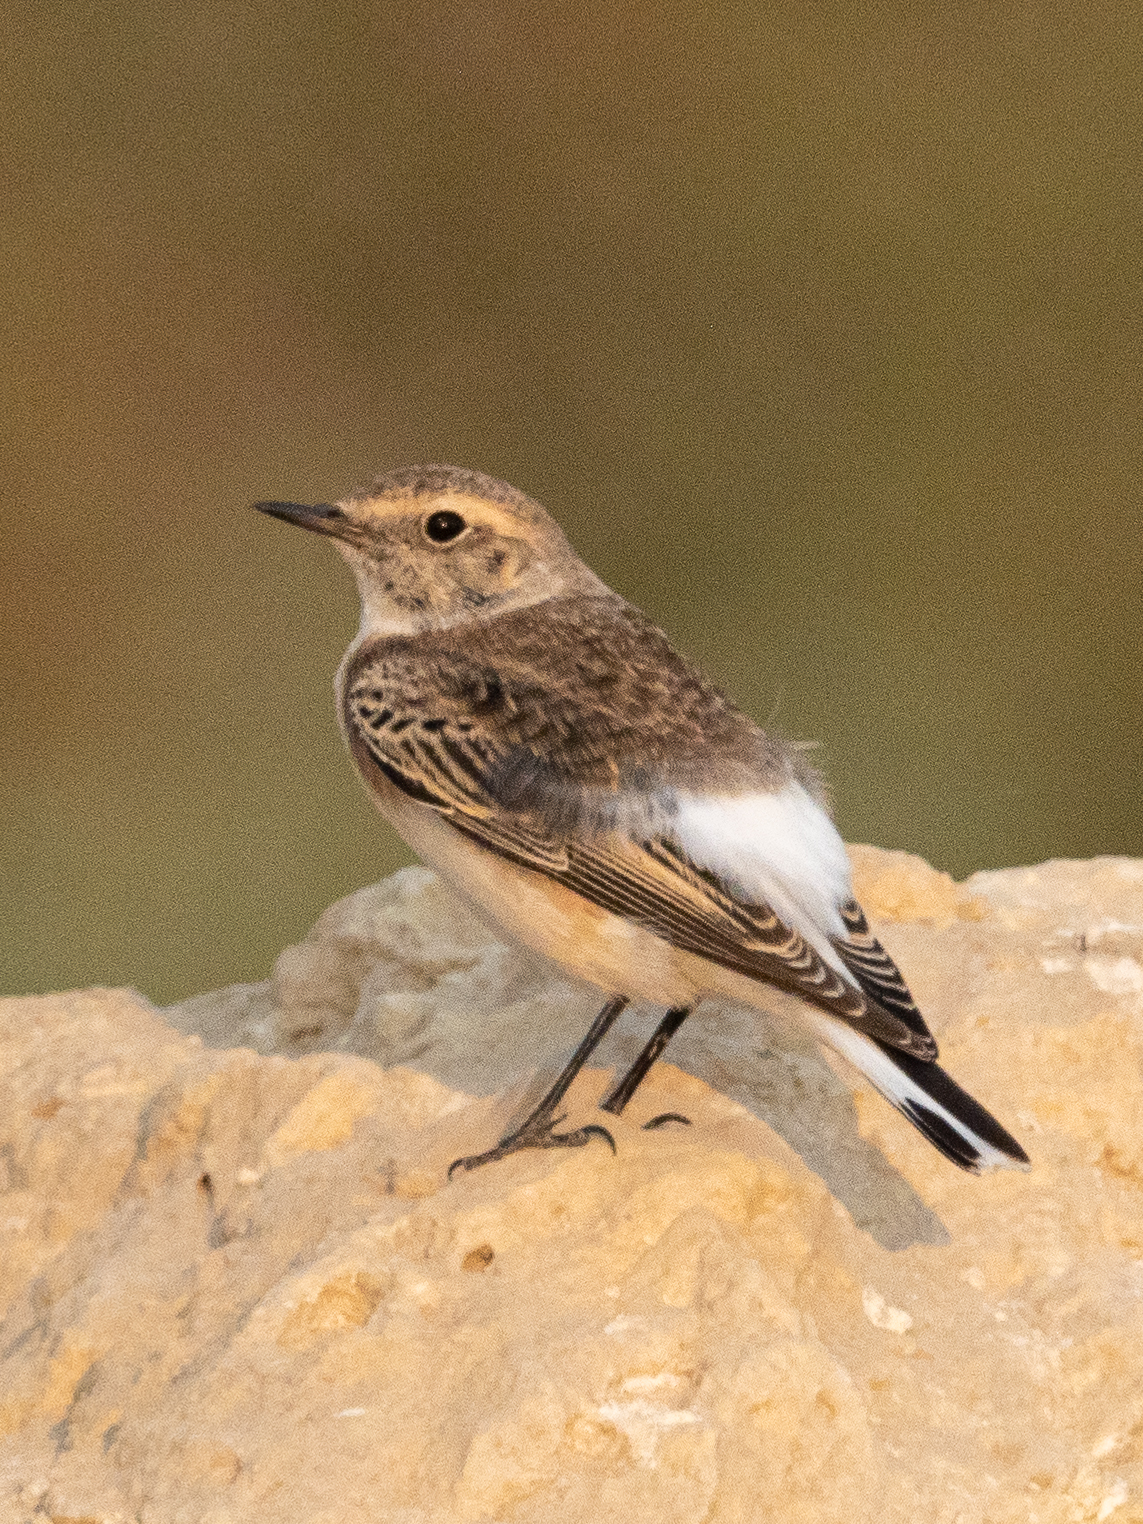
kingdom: Animalia
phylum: Chordata
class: Aves
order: Passeriformes
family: Muscicapidae
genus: Oenanthe
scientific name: Oenanthe deserti
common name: Desert wheatear
